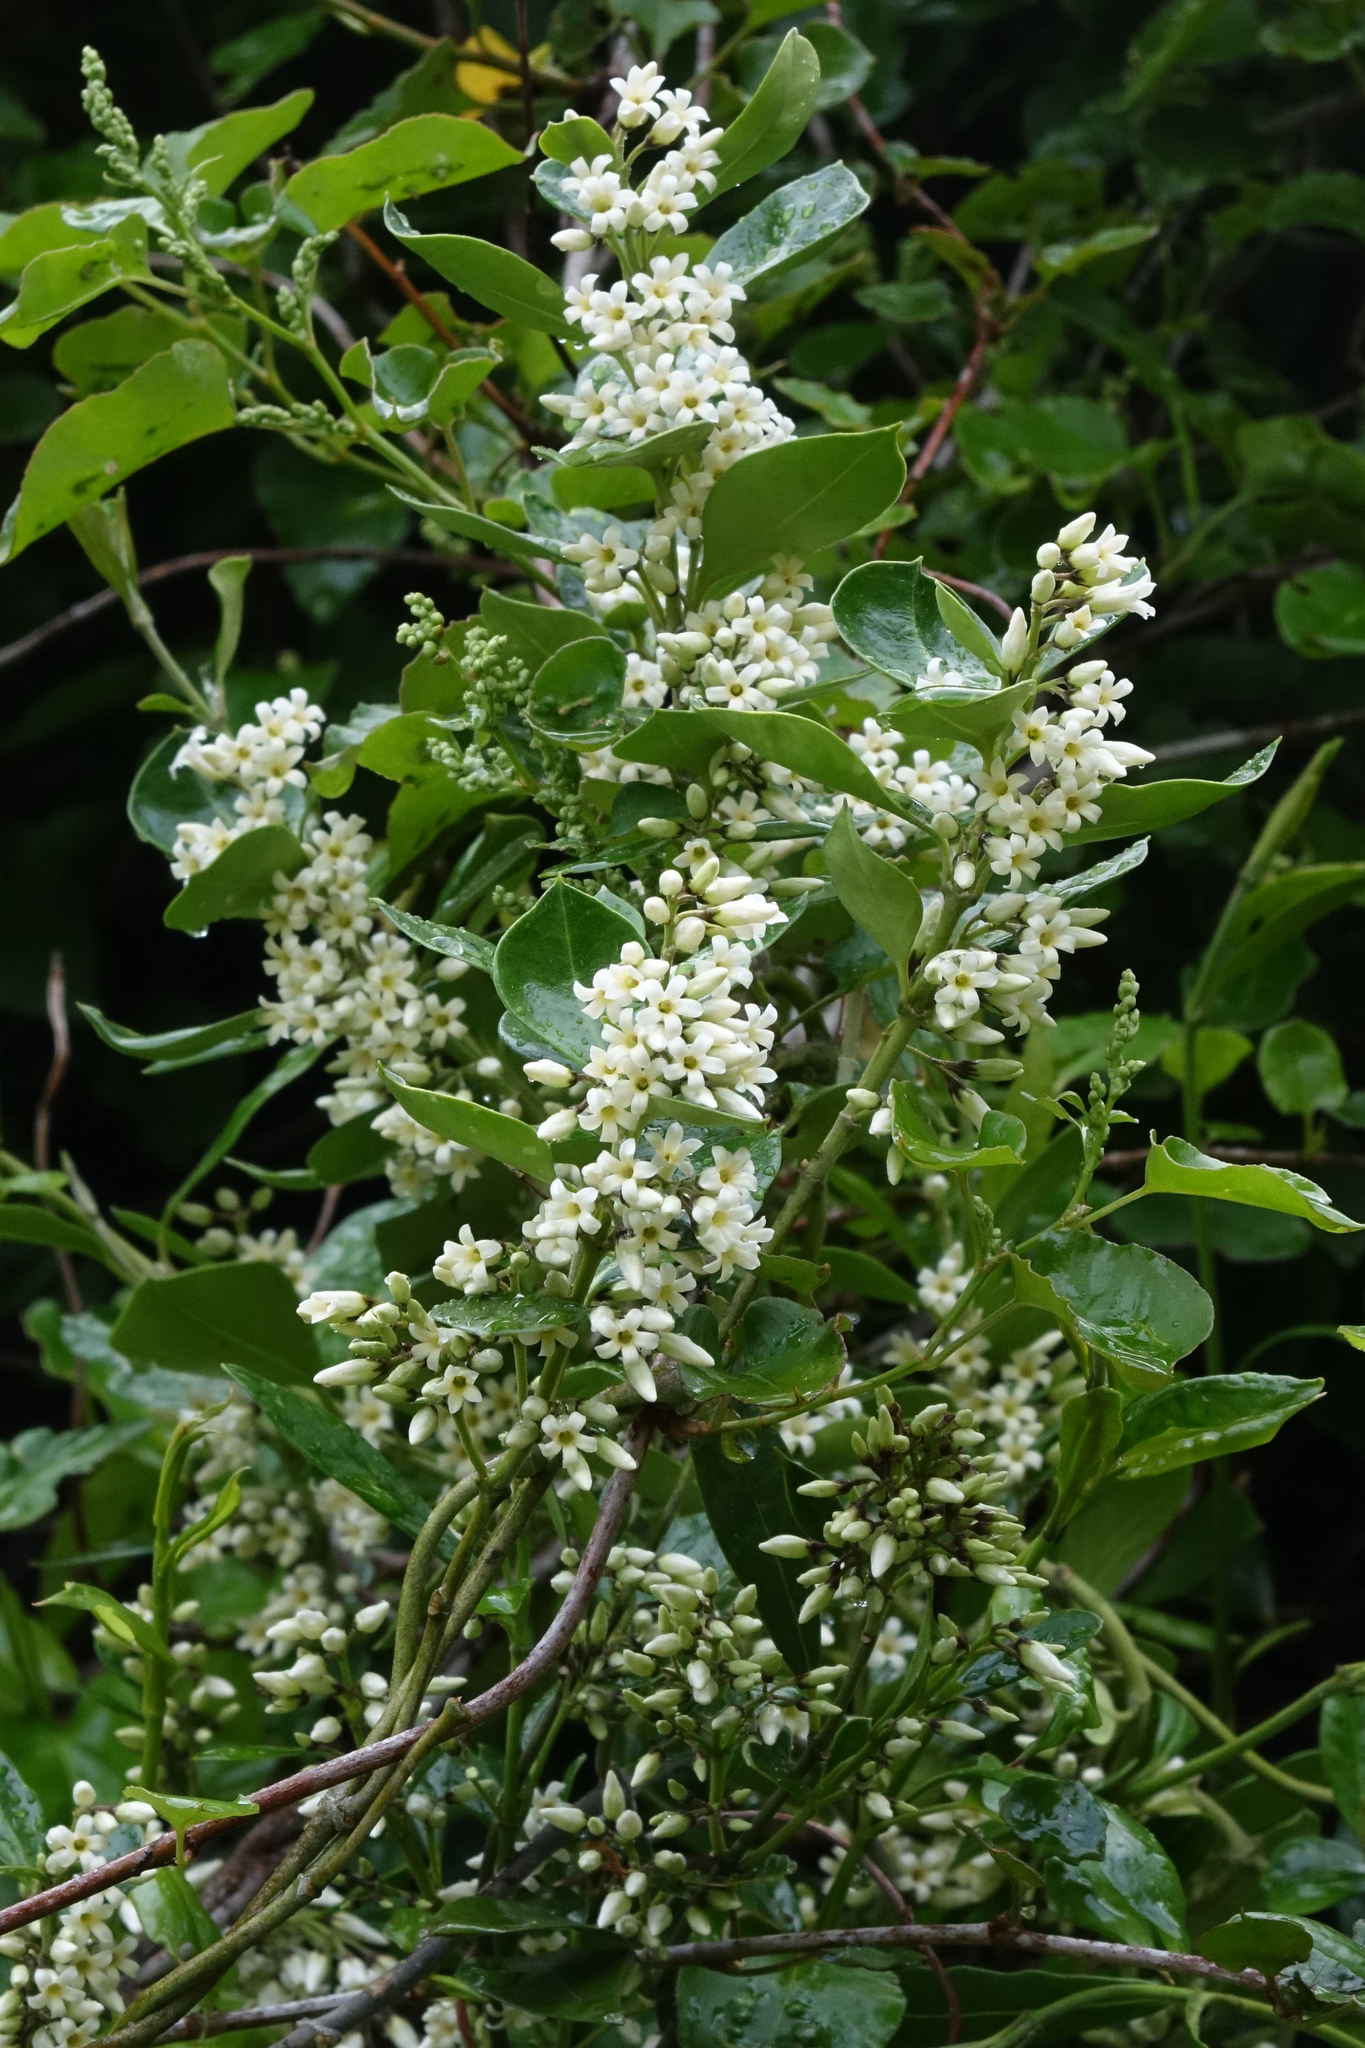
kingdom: Plantae
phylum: Tracheophyta
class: Magnoliopsida
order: Gentianales
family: Apocynaceae
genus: Parsonsia
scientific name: Parsonsia heterophylla
